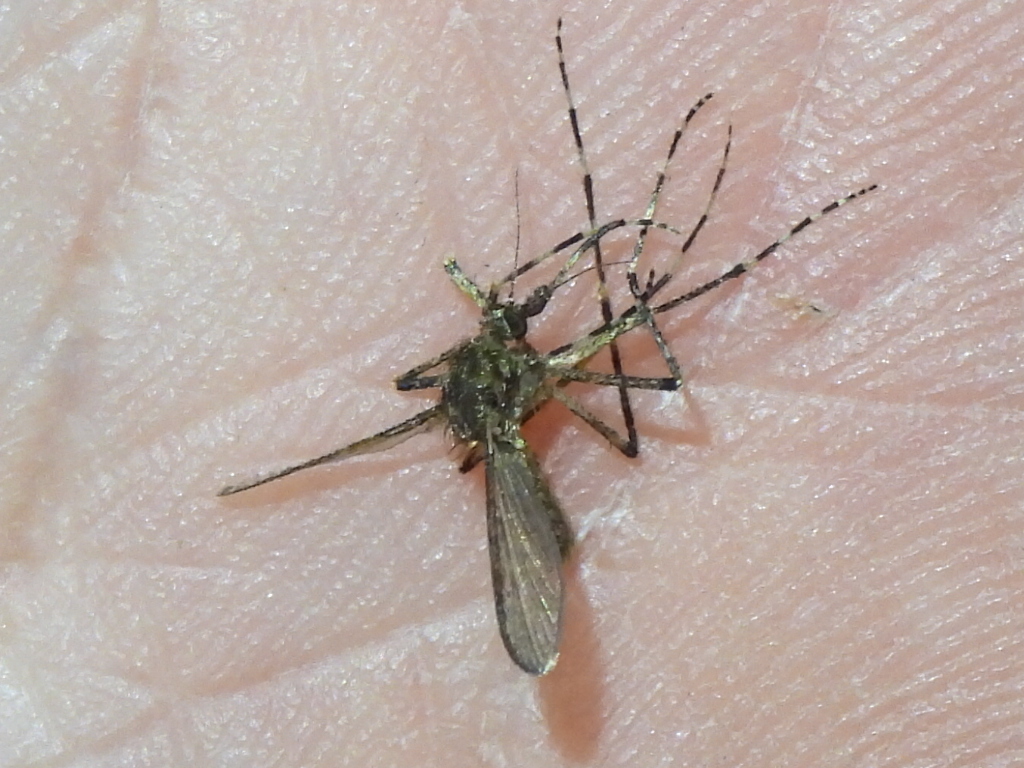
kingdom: Animalia
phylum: Arthropoda
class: Insecta
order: Diptera
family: Culicidae
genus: Coquillettidia
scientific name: Coquillettidia perturbans
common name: Cattail mosquito
